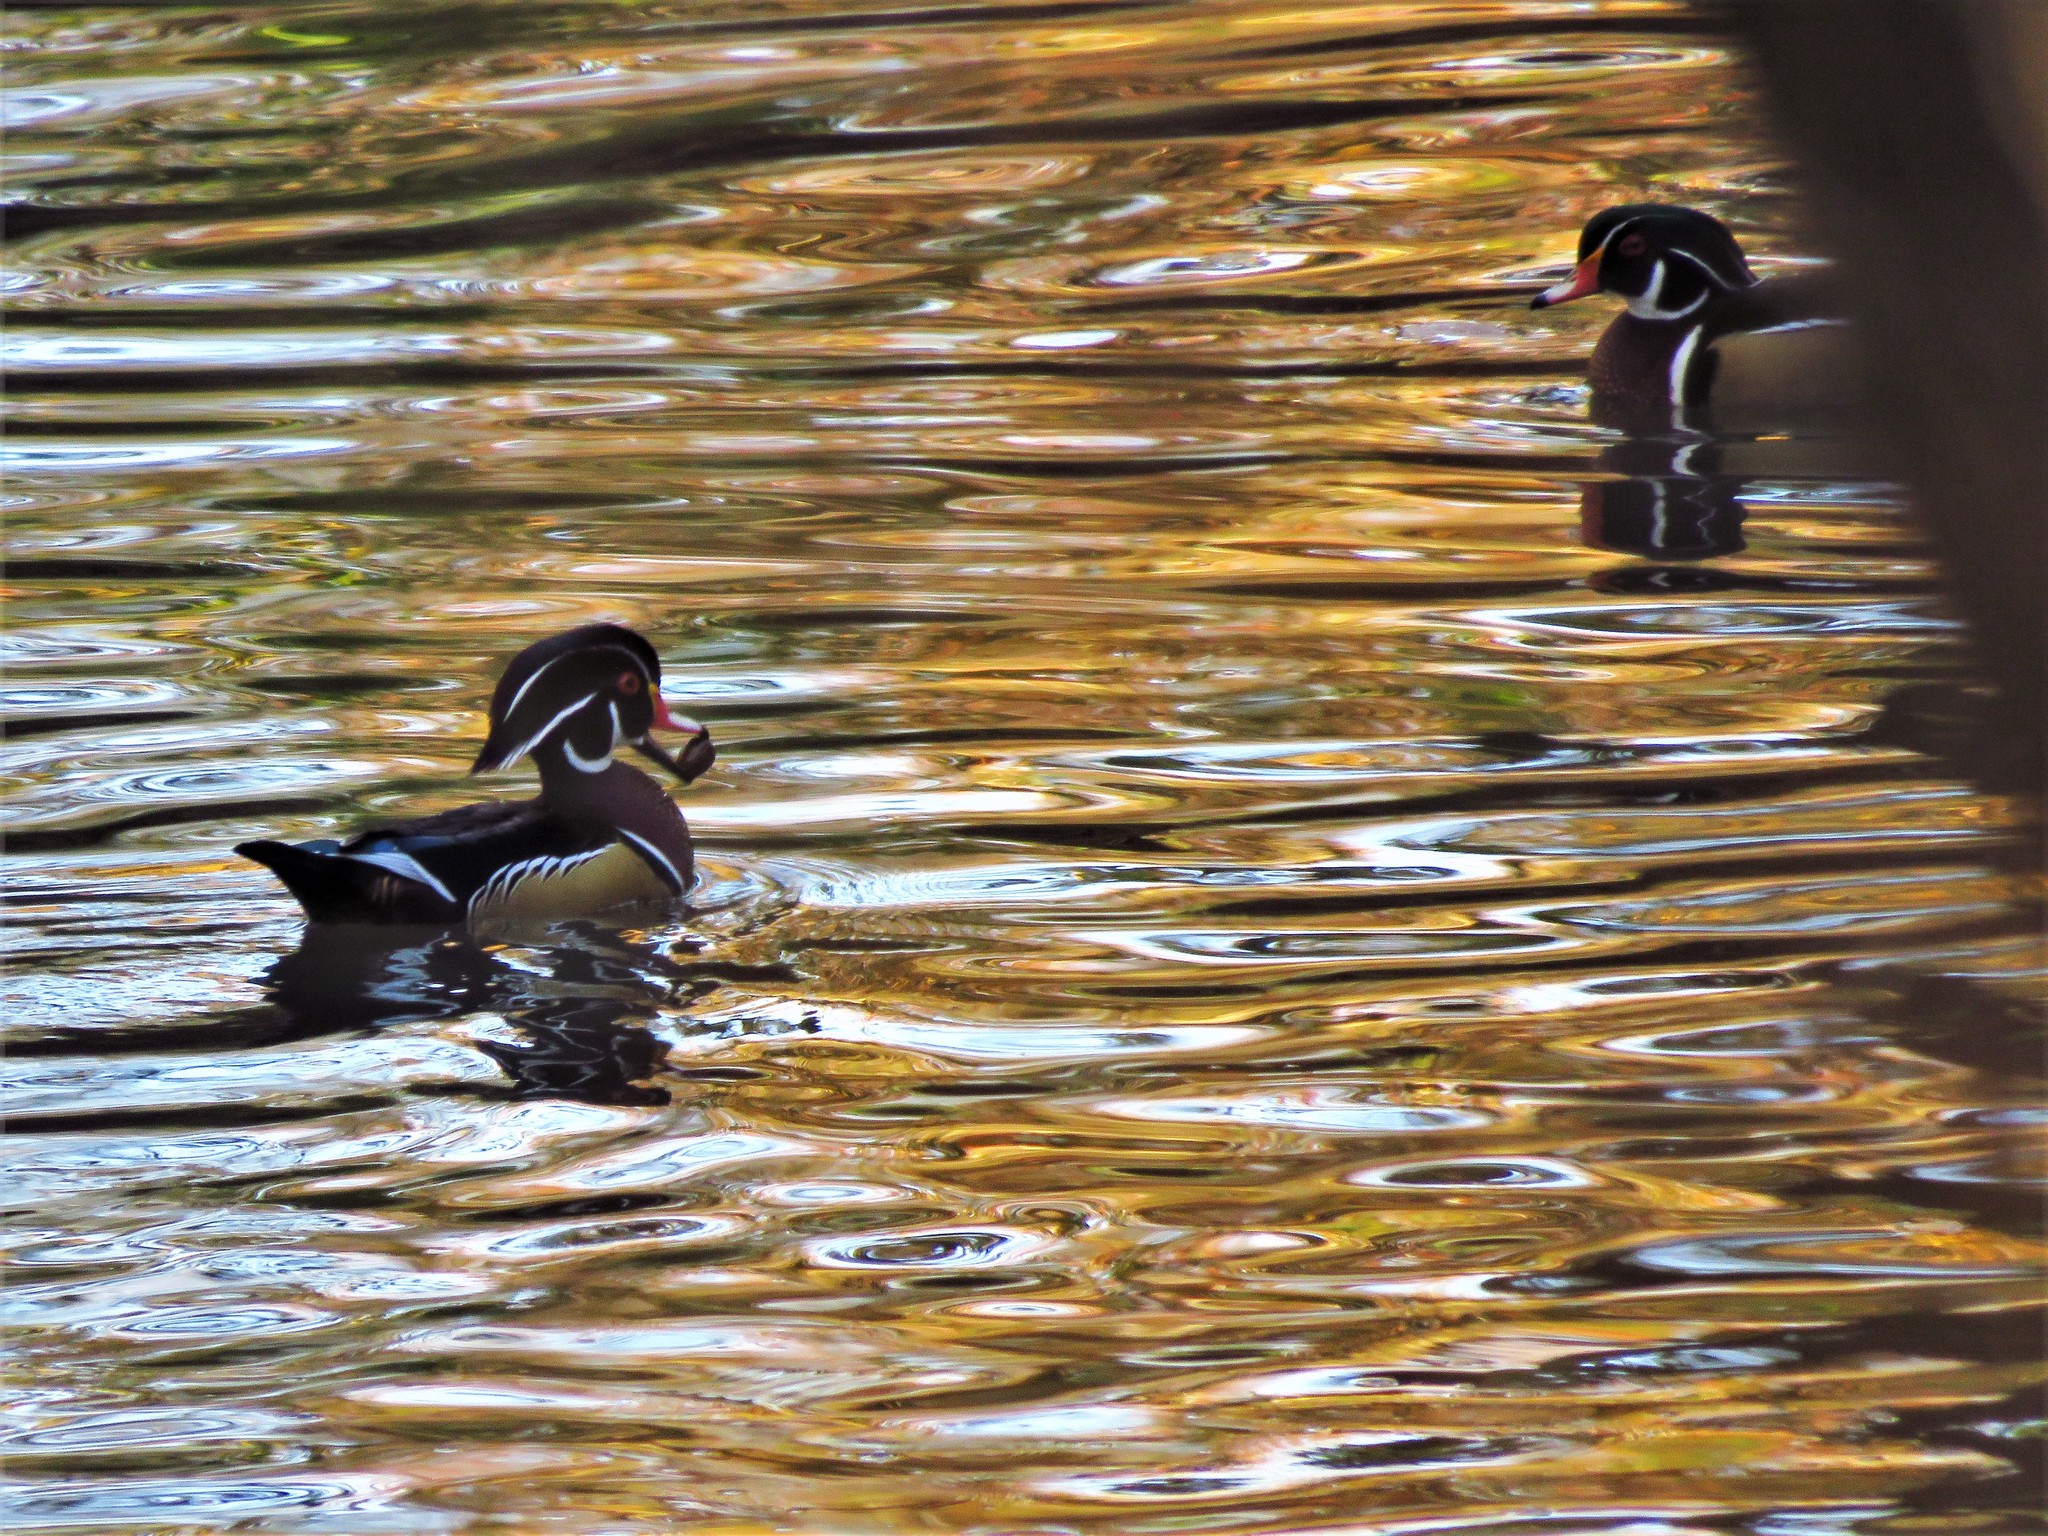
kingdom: Animalia
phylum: Chordata
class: Aves
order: Anseriformes
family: Anatidae
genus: Aix
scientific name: Aix sponsa
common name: Wood duck
